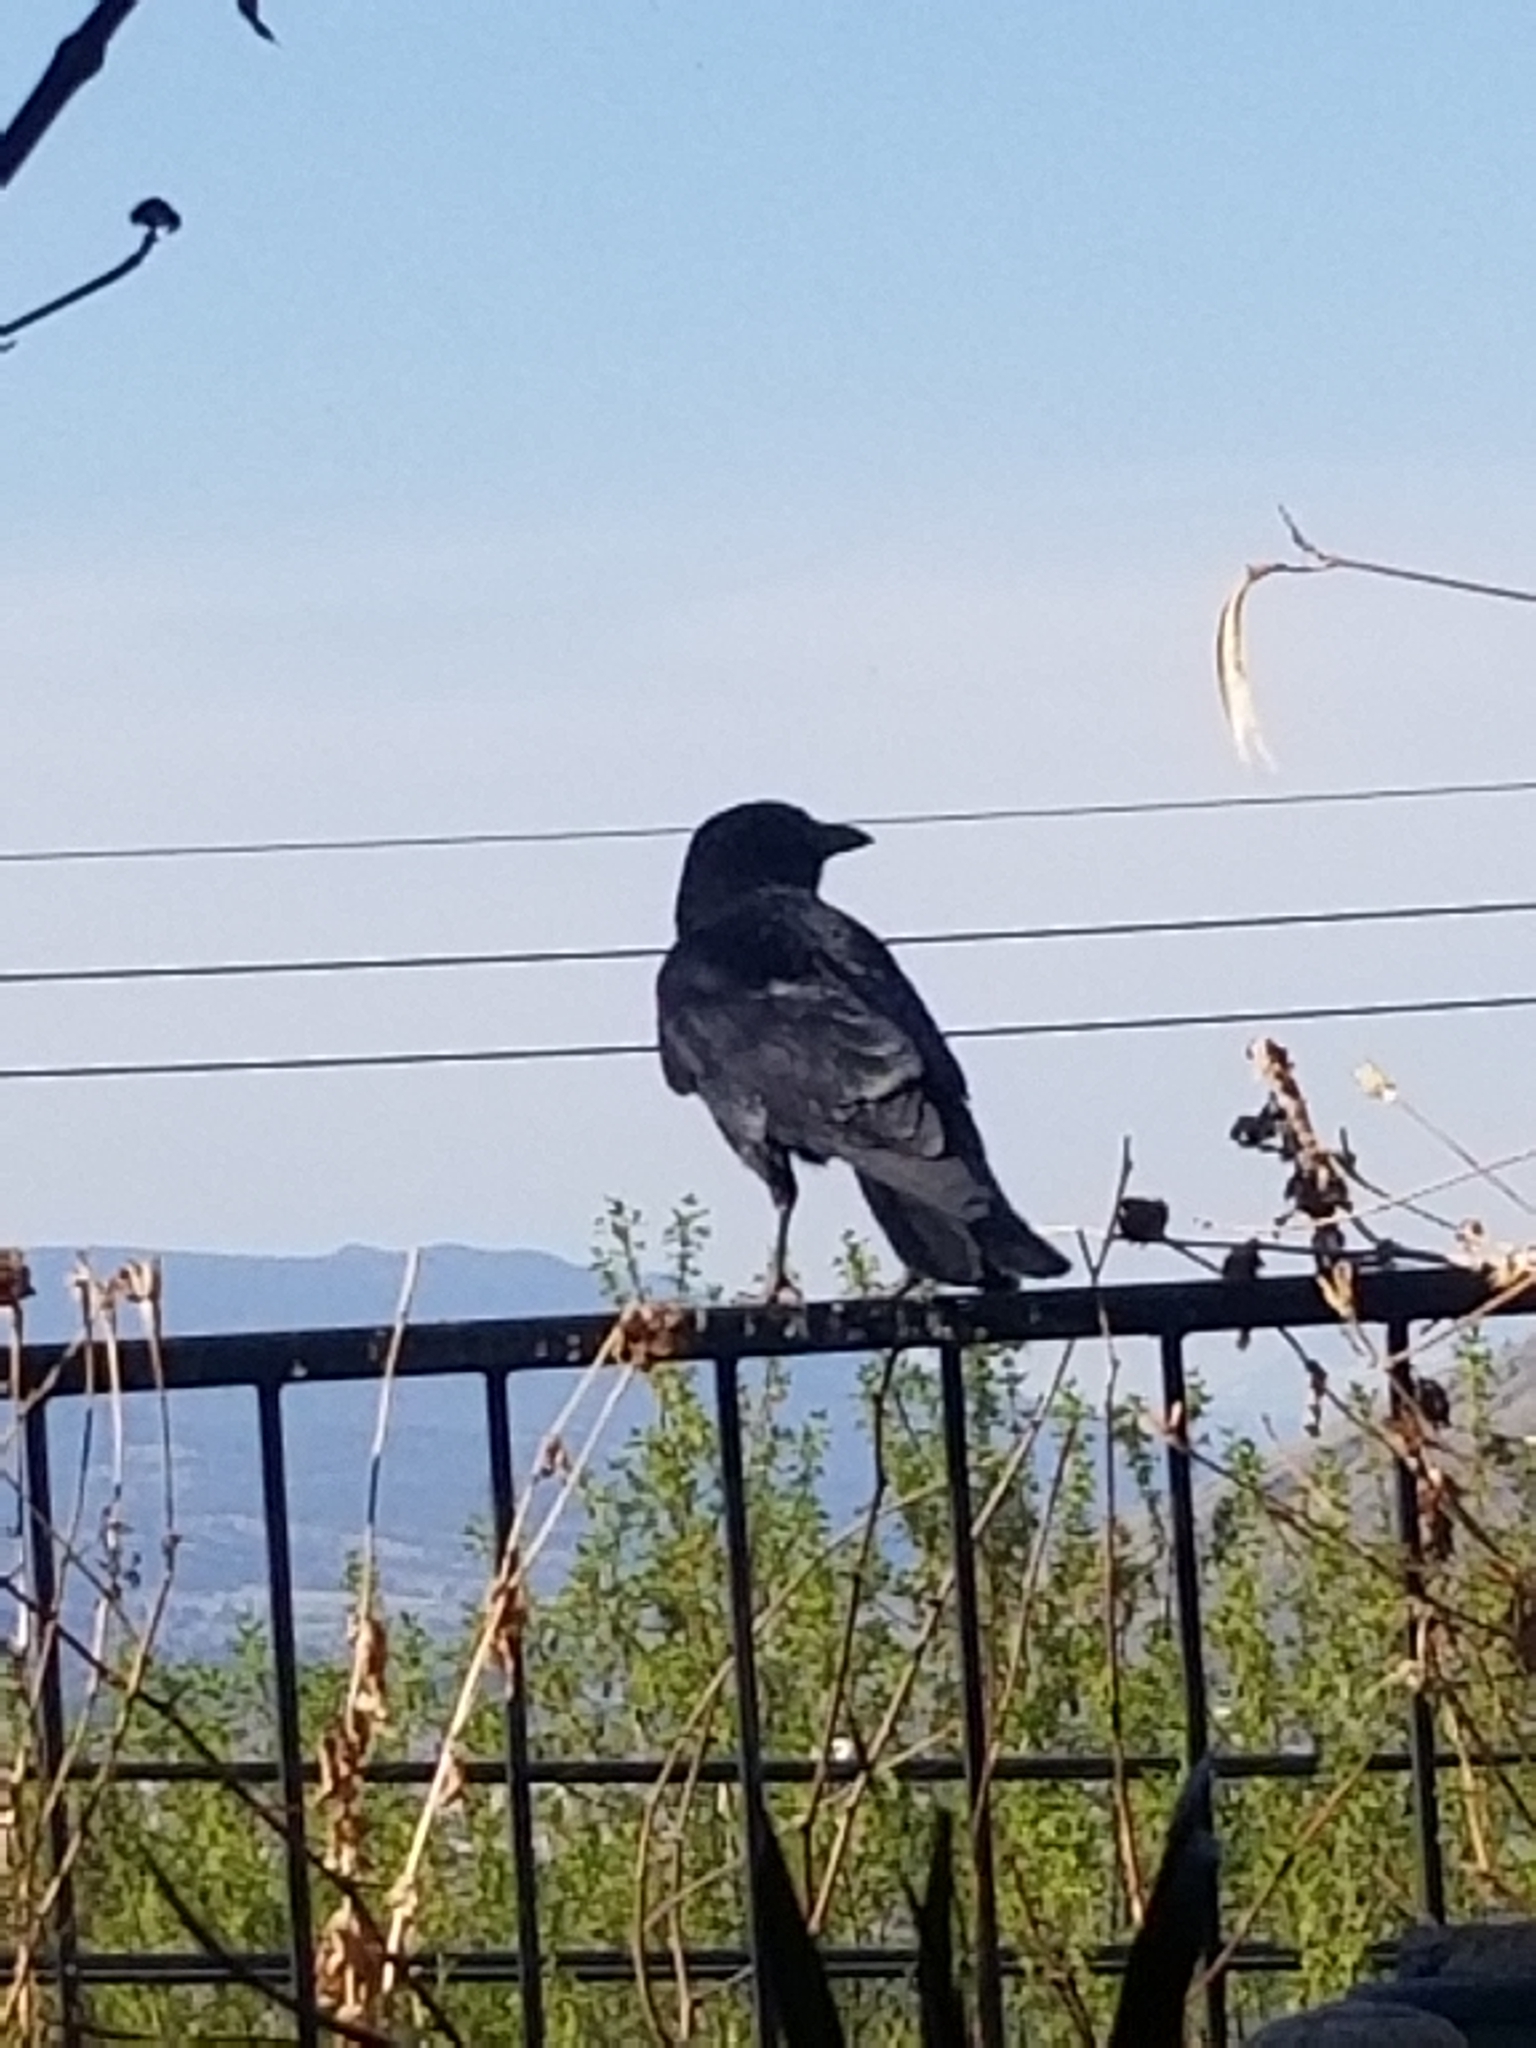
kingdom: Animalia
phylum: Chordata
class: Aves
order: Passeriformes
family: Corvidae
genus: Corvus
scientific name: Corvus brachyrhynchos
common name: American crow
